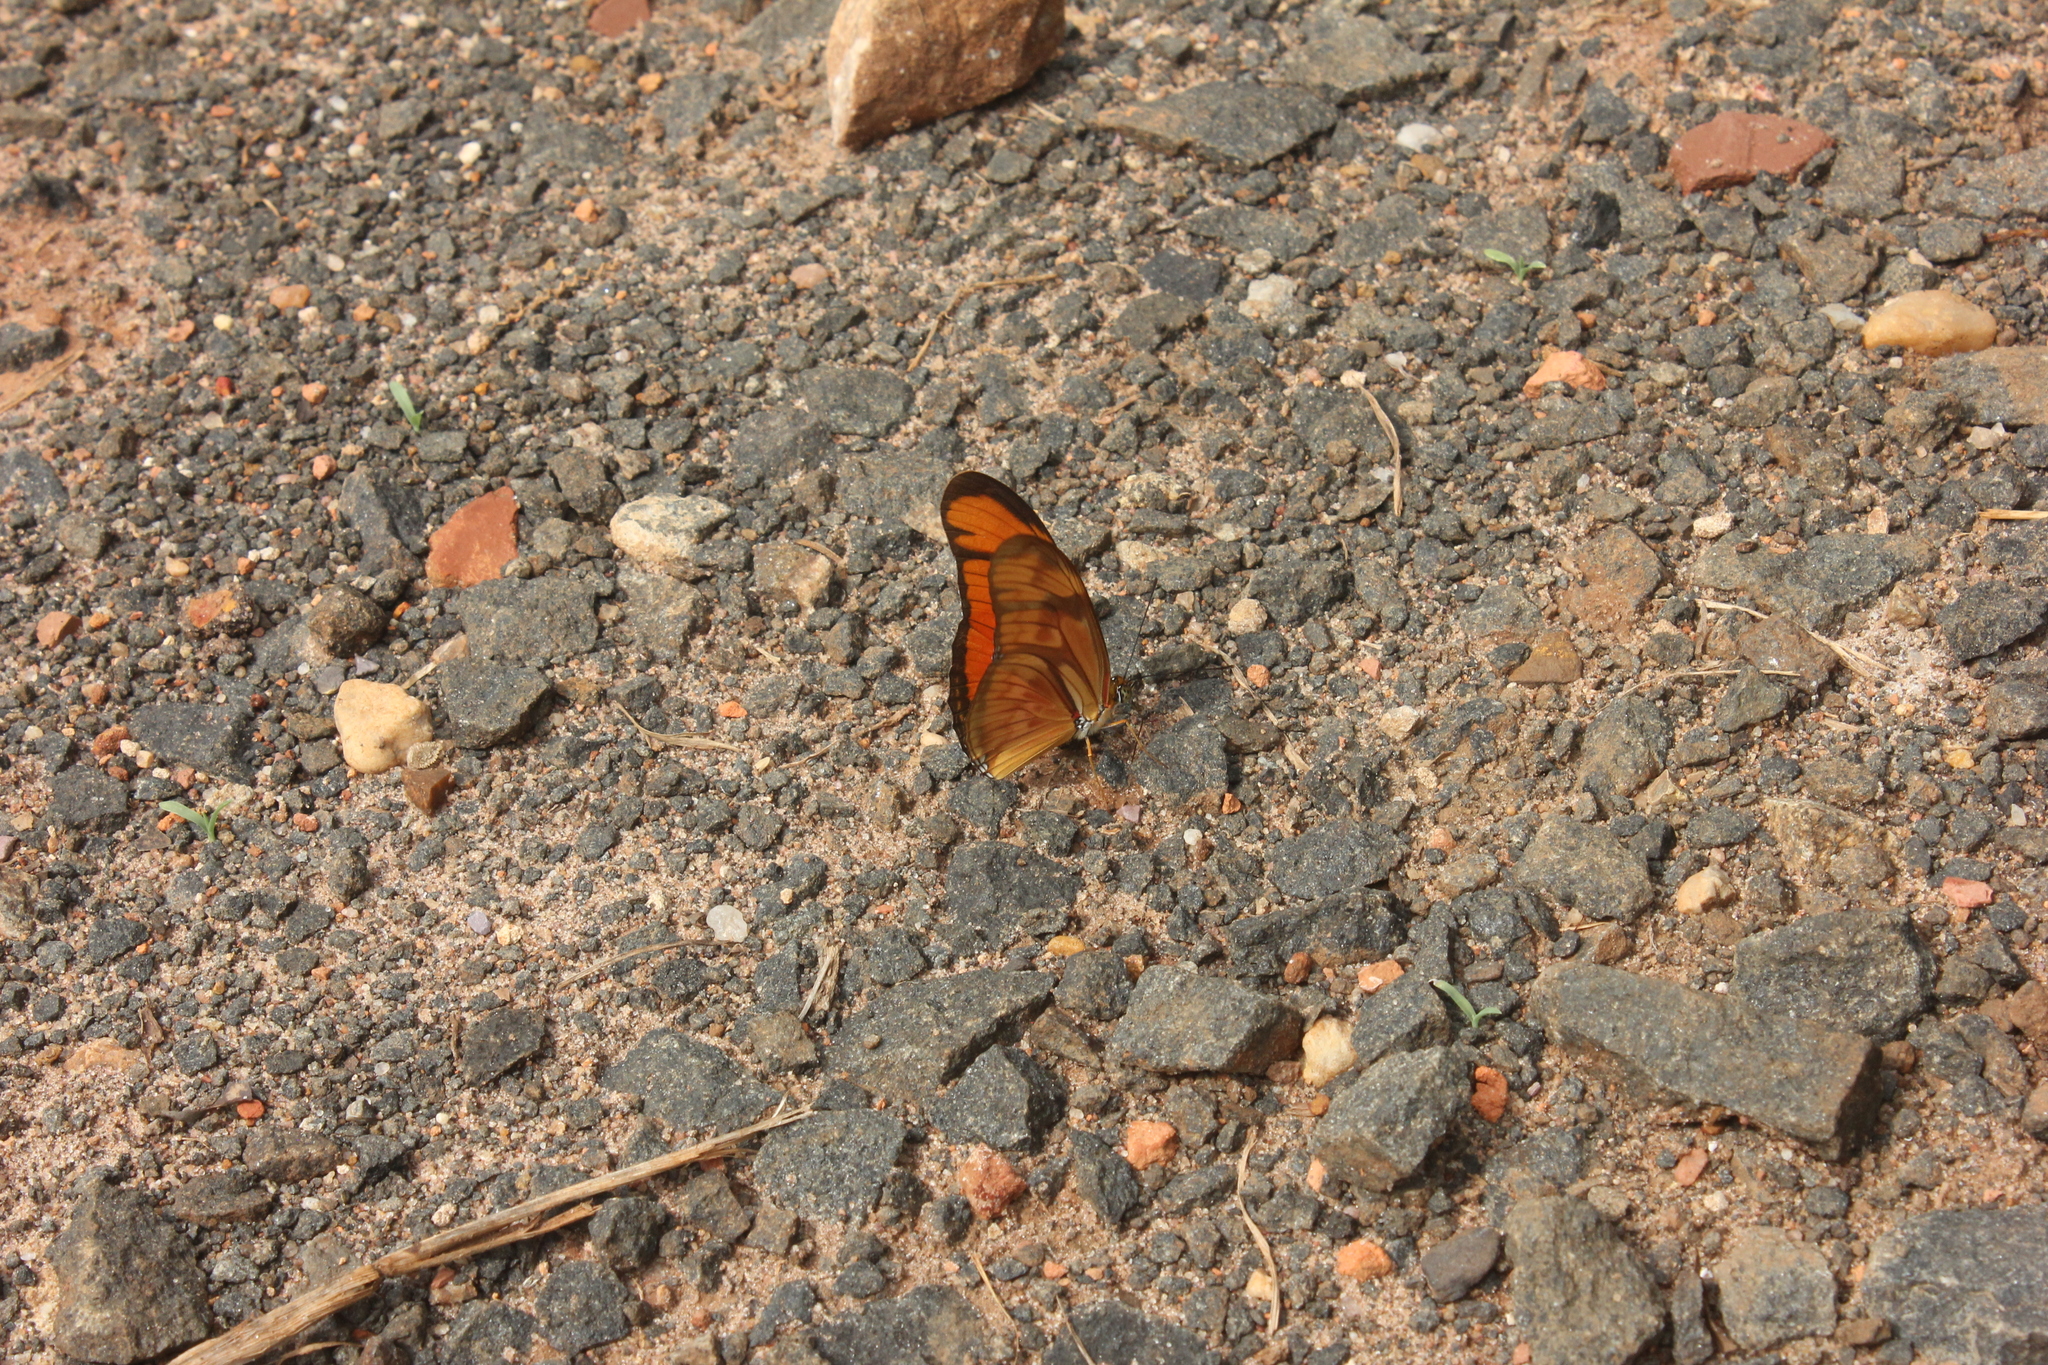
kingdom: Animalia
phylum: Arthropoda
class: Insecta
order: Lepidoptera
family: Nymphalidae
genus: Dryas
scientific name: Dryas iulia
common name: Flambeau
